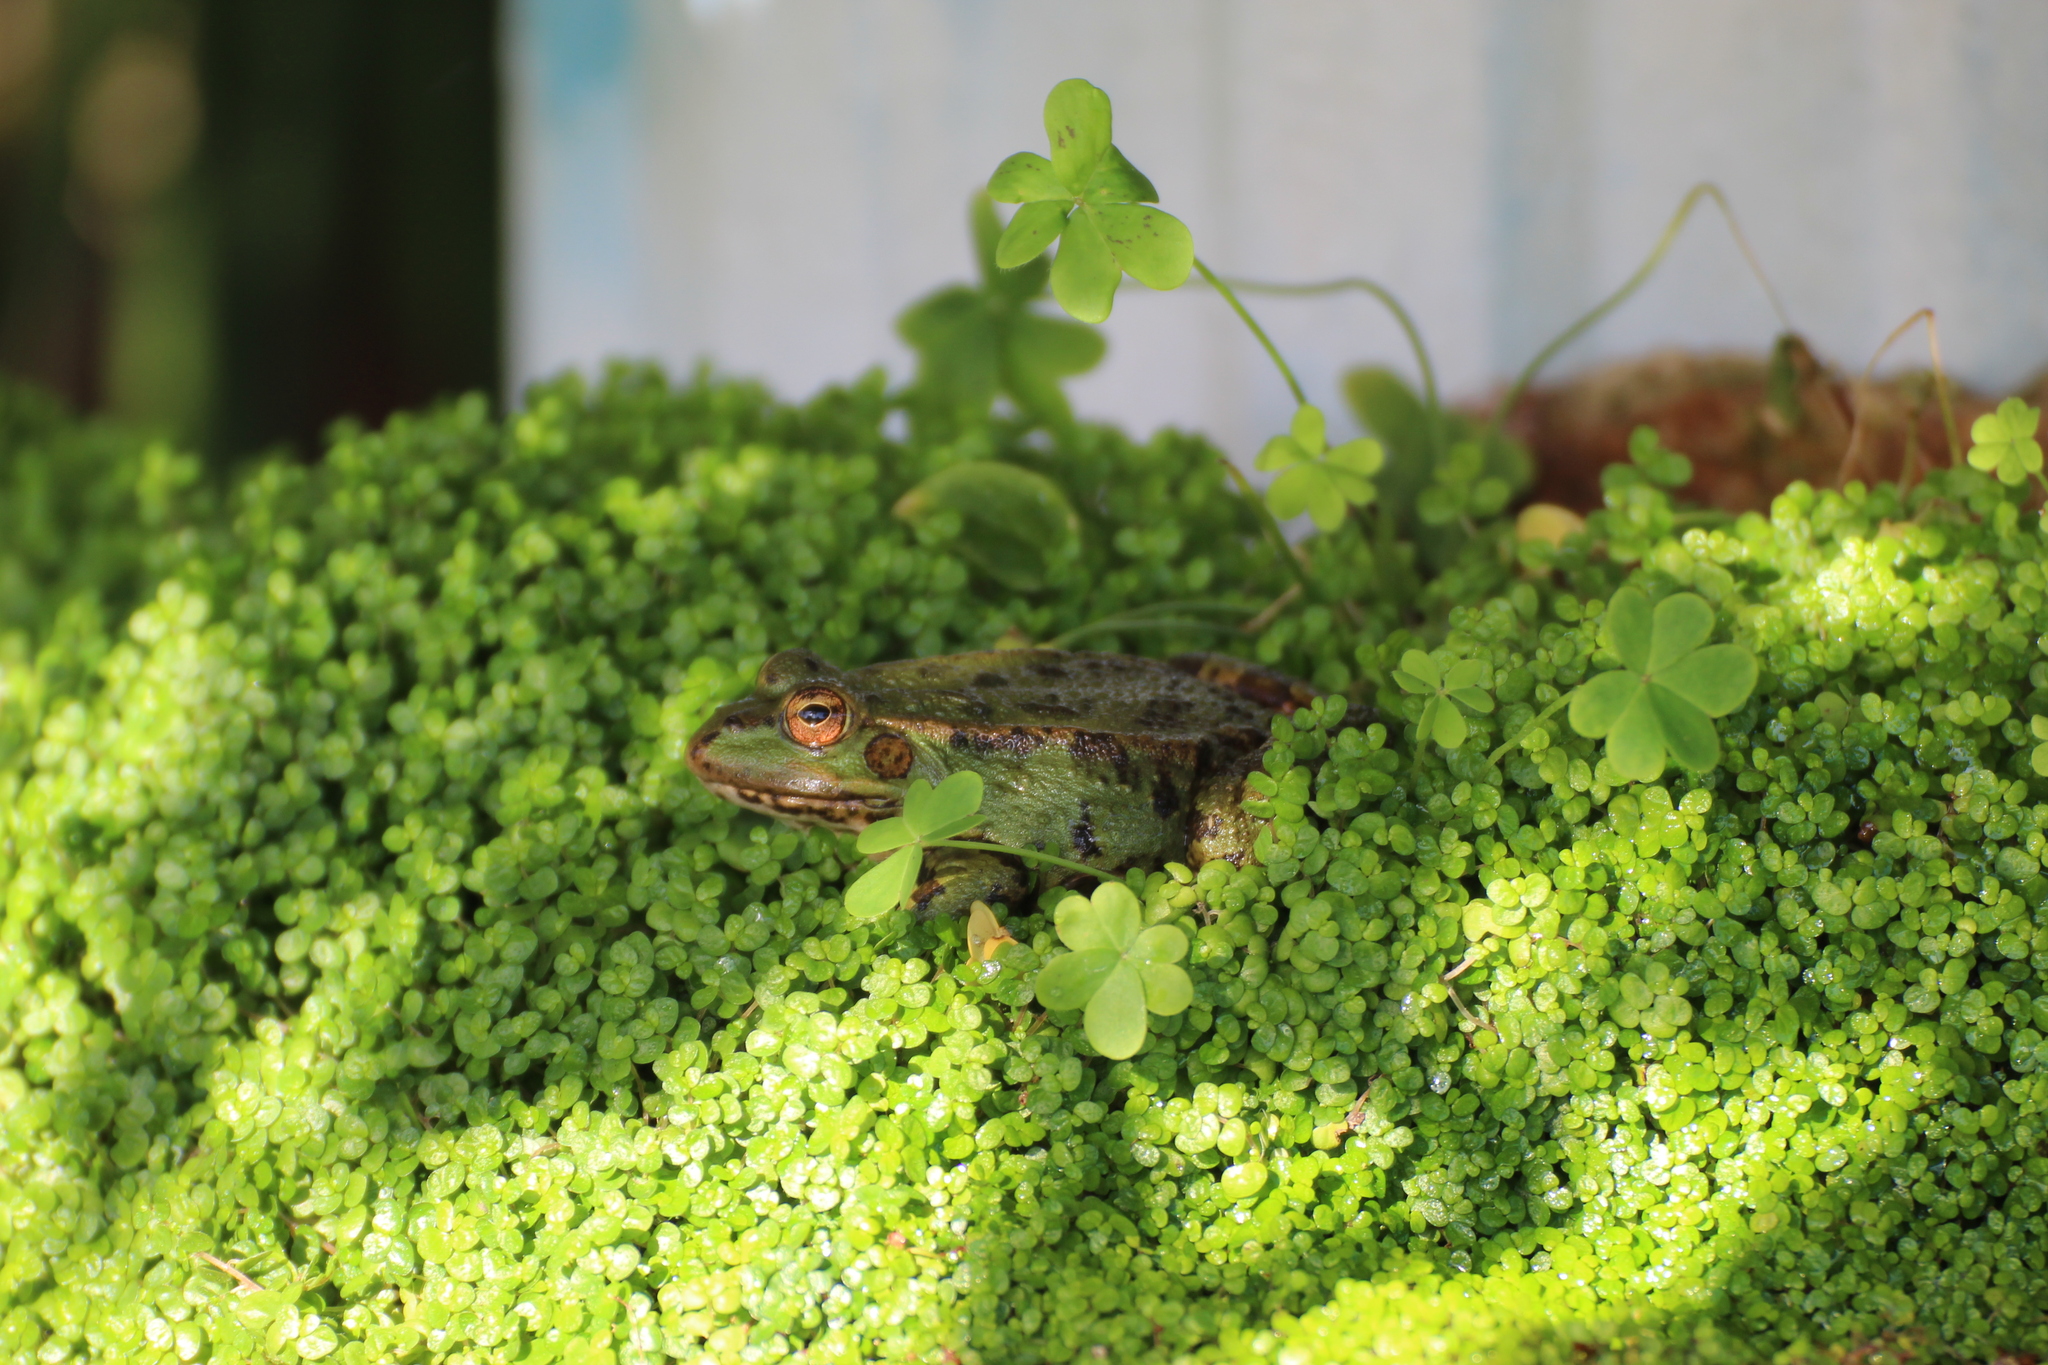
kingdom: Animalia
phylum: Chordata
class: Amphibia
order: Anura
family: Ranidae
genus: Pelophylax
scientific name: Pelophylax perezi
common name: Perez's frog
